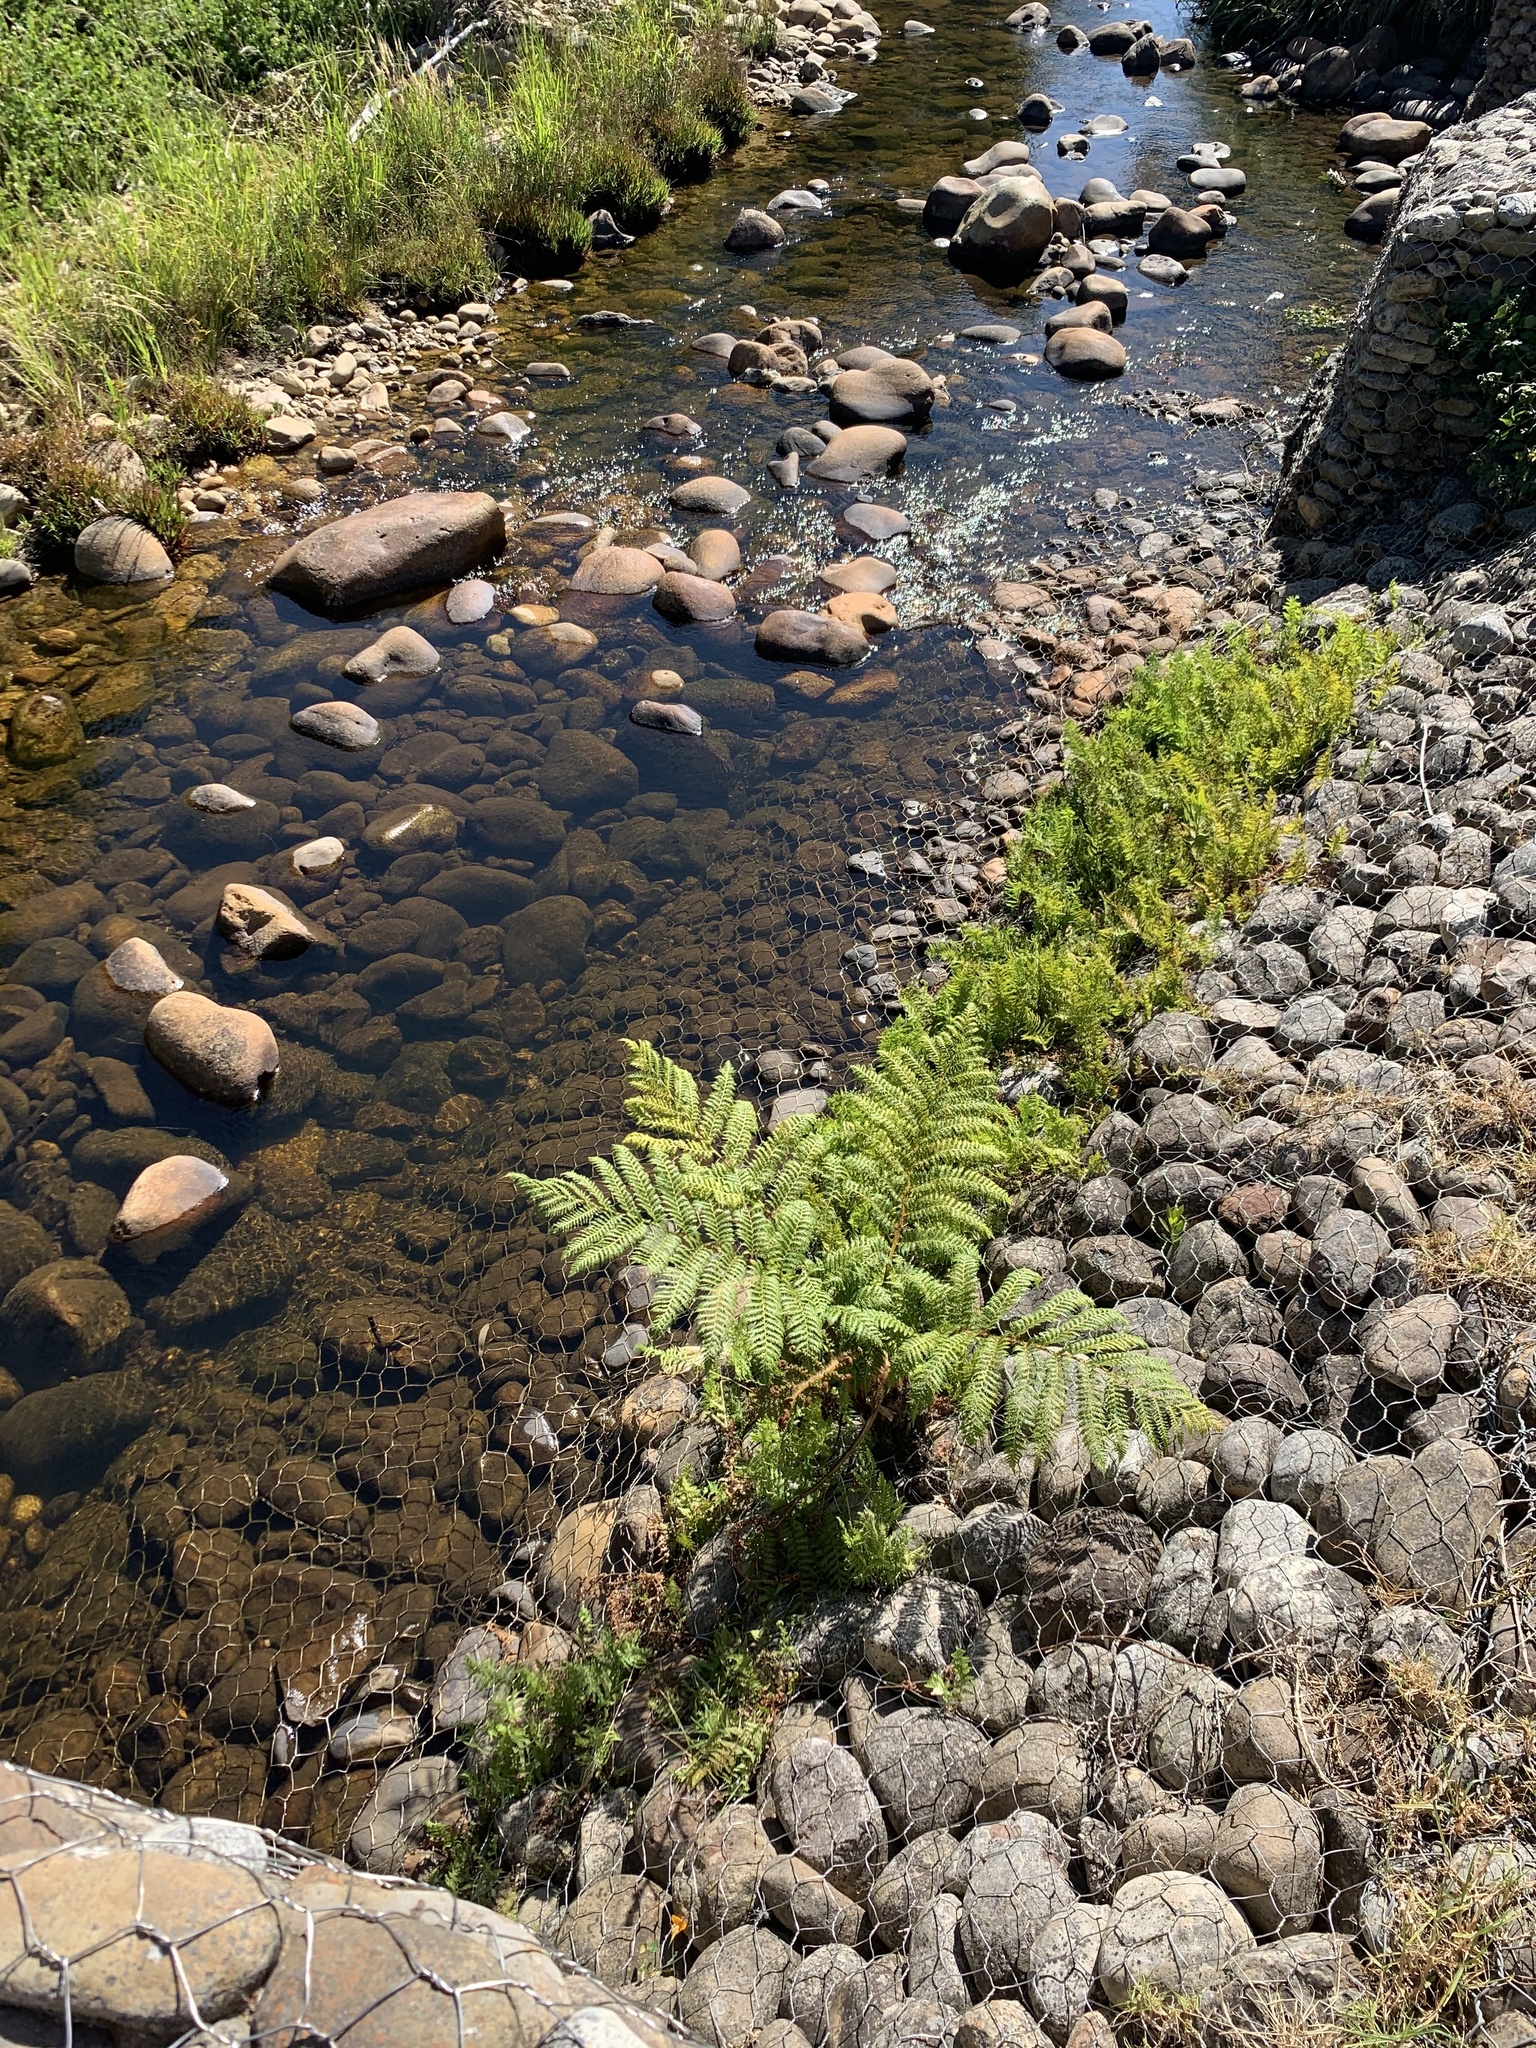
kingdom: Plantae
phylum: Tracheophyta
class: Polypodiopsida
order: Cyatheales
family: Cyatheaceae
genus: Sphaeropteris
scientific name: Sphaeropteris cooperi
